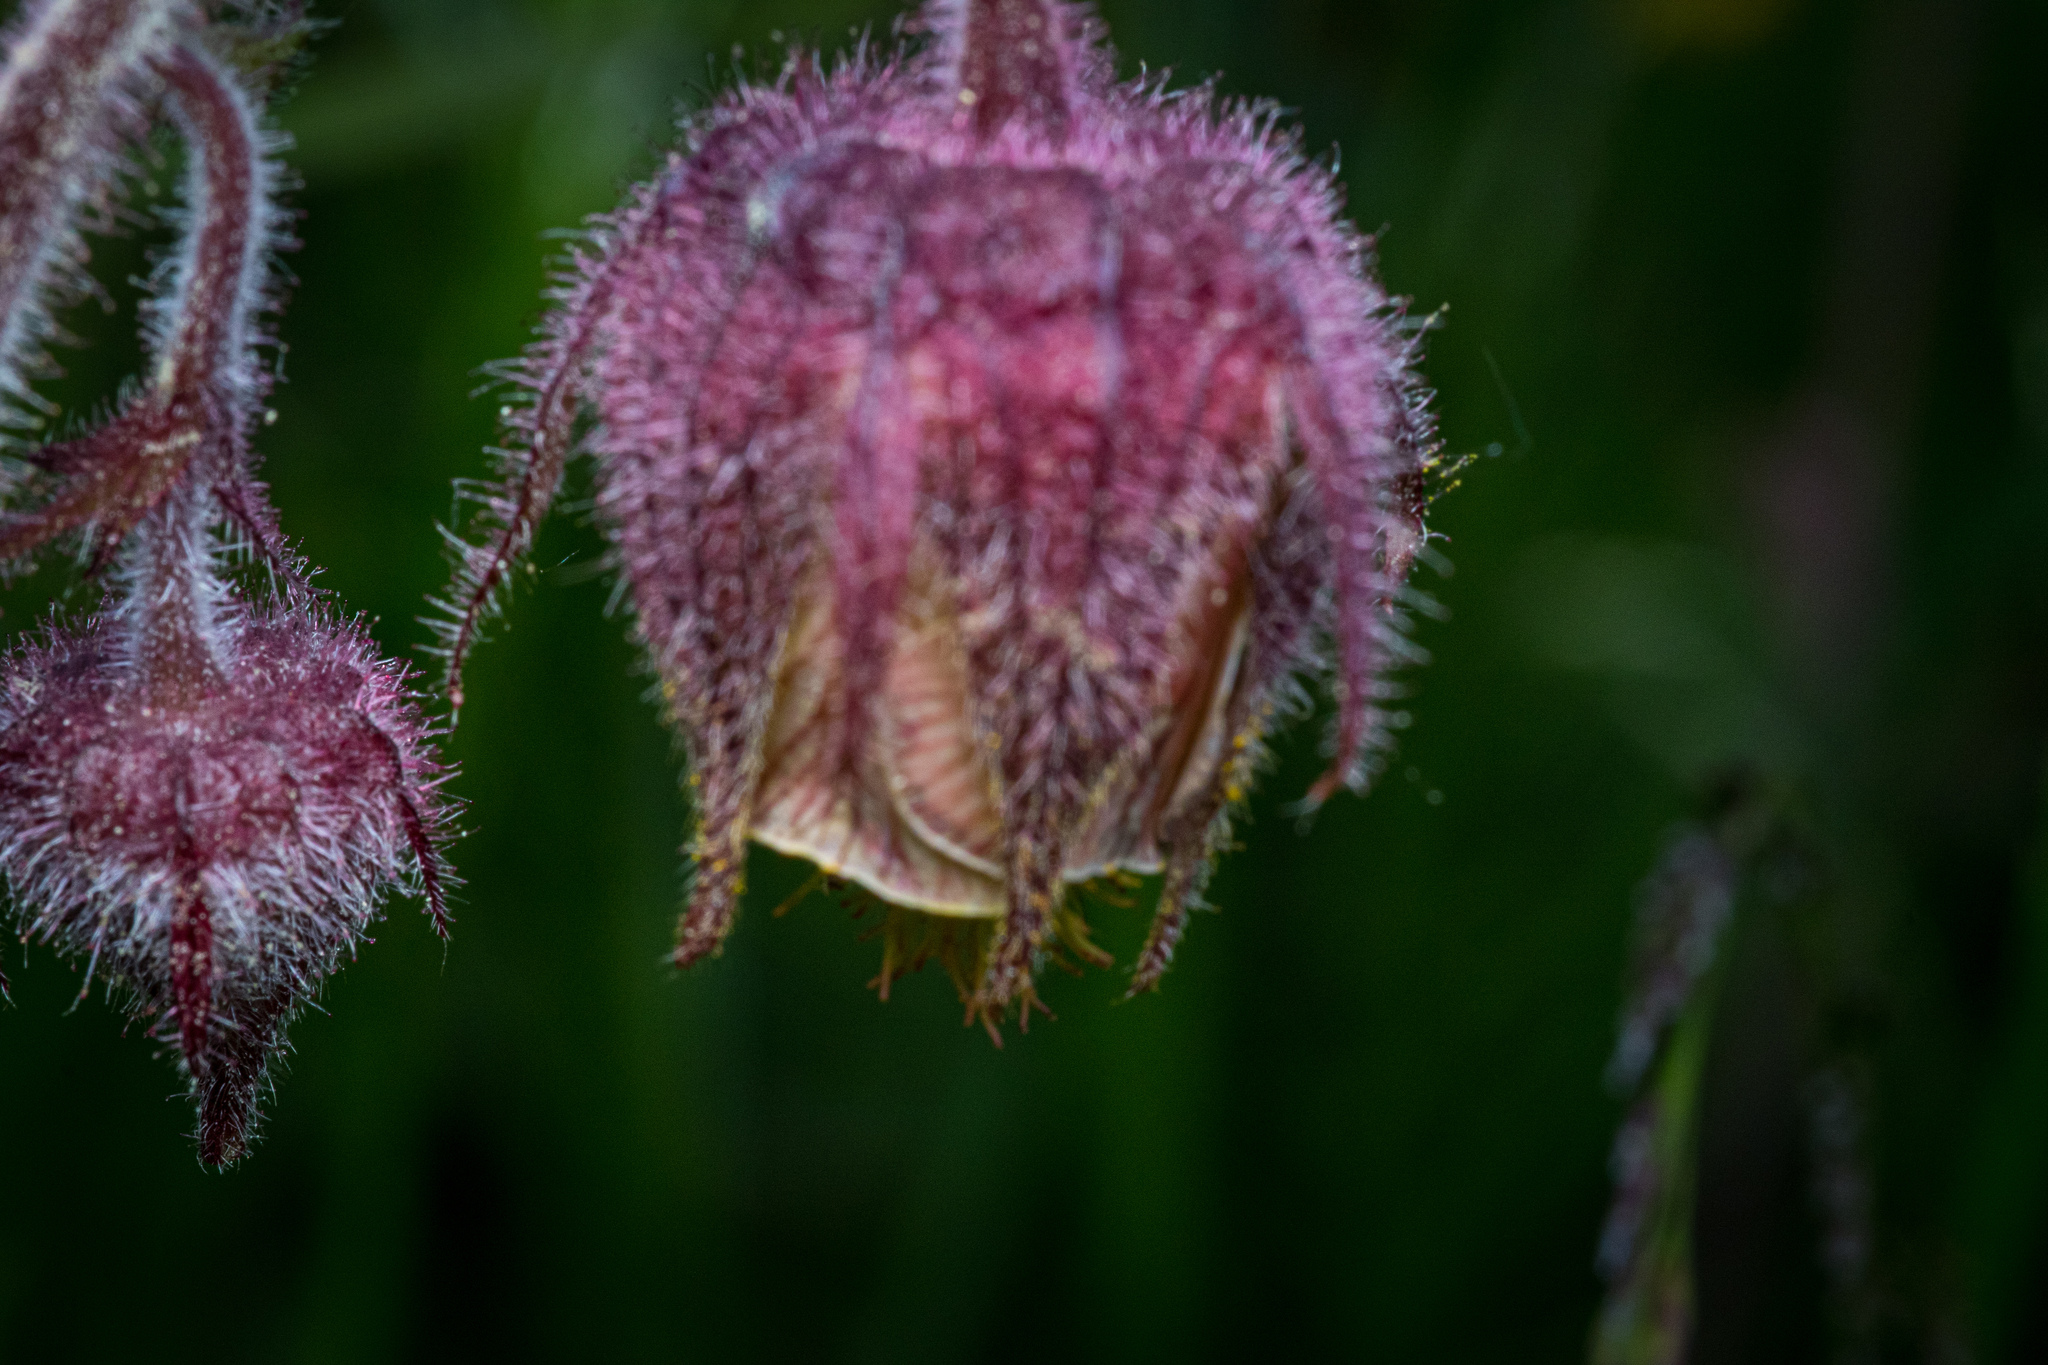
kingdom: Plantae
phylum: Tracheophyta
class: Magnoliopsida
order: Rosales
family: Rosaceae
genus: Geum
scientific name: Geum rivale
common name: Water avens
